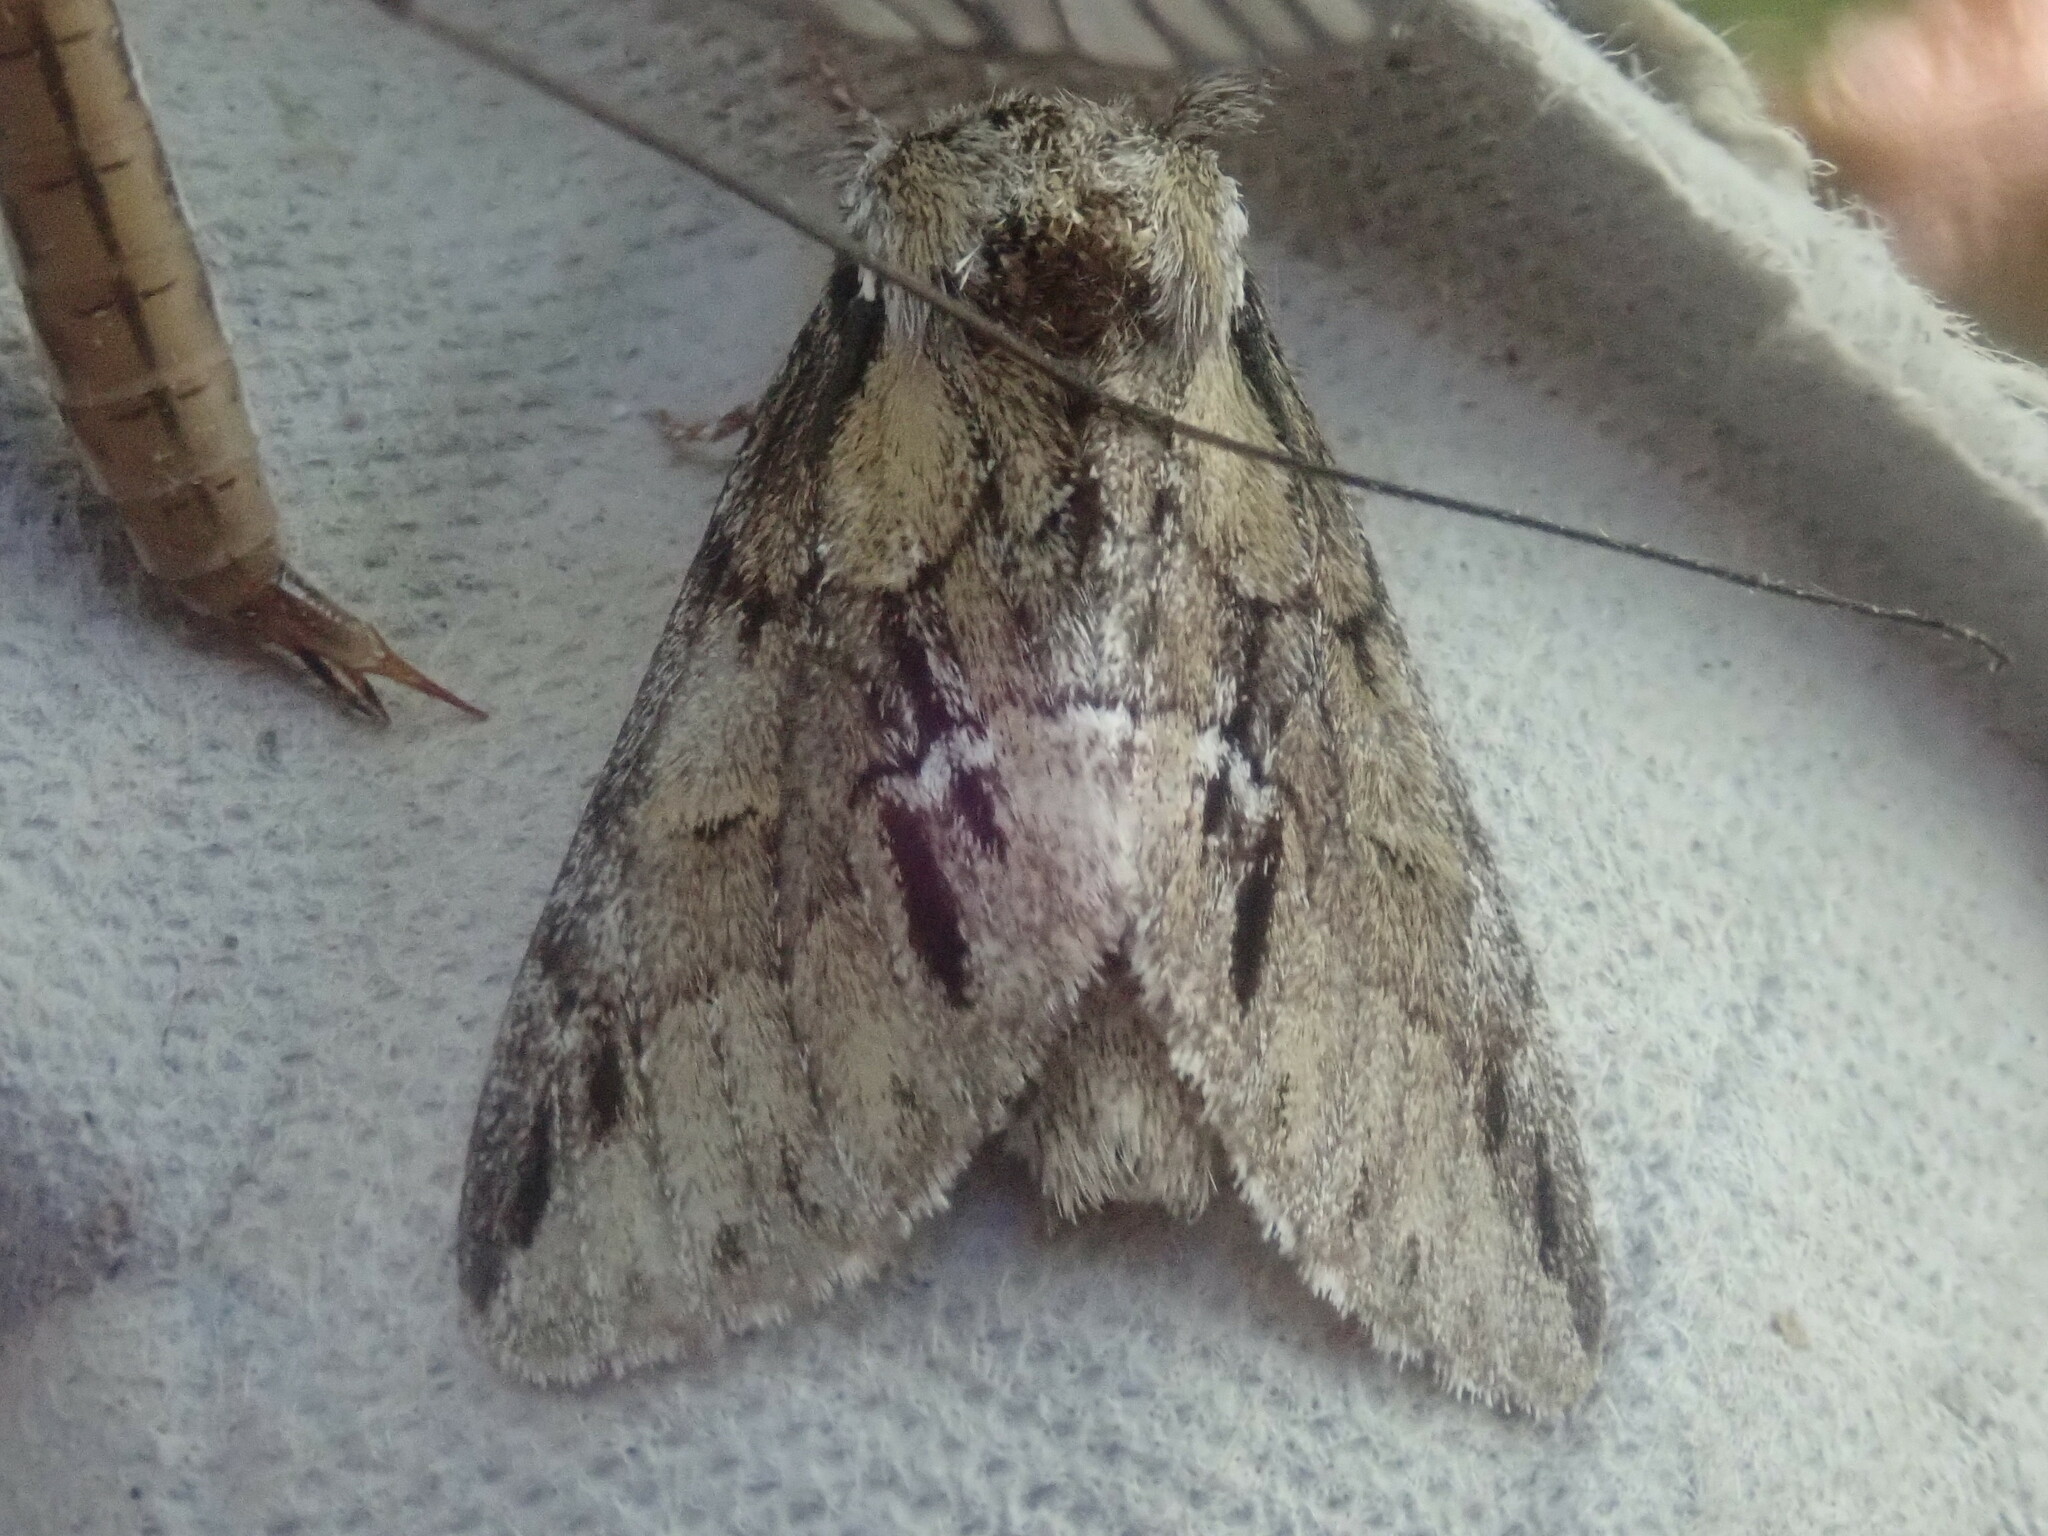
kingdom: Animalia
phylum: Arthropoda
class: Insecta
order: Lepidoptera
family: Notodontidae
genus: Paraeschra
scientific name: Paraeschra georgica
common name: Georgian prominent
